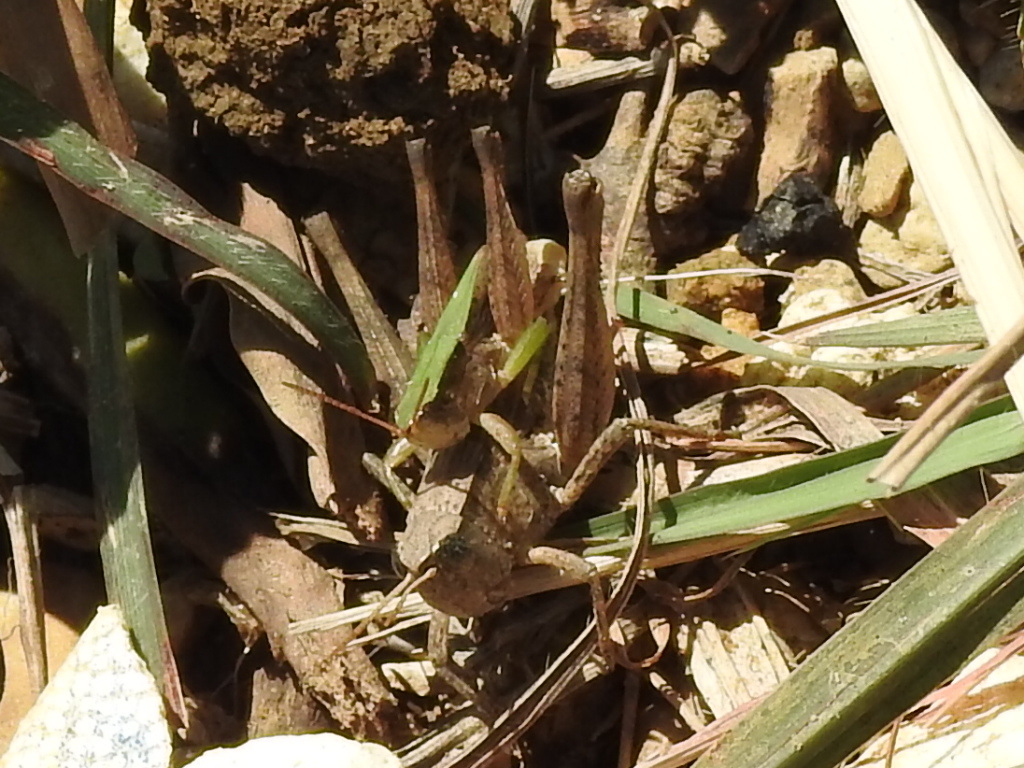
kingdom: Animalia
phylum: Arthropoda
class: Insecta
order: Orthoptera
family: Acrididae
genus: Dichromorpha
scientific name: Dichromorpha viridis
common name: Short-winged green grasshopper
